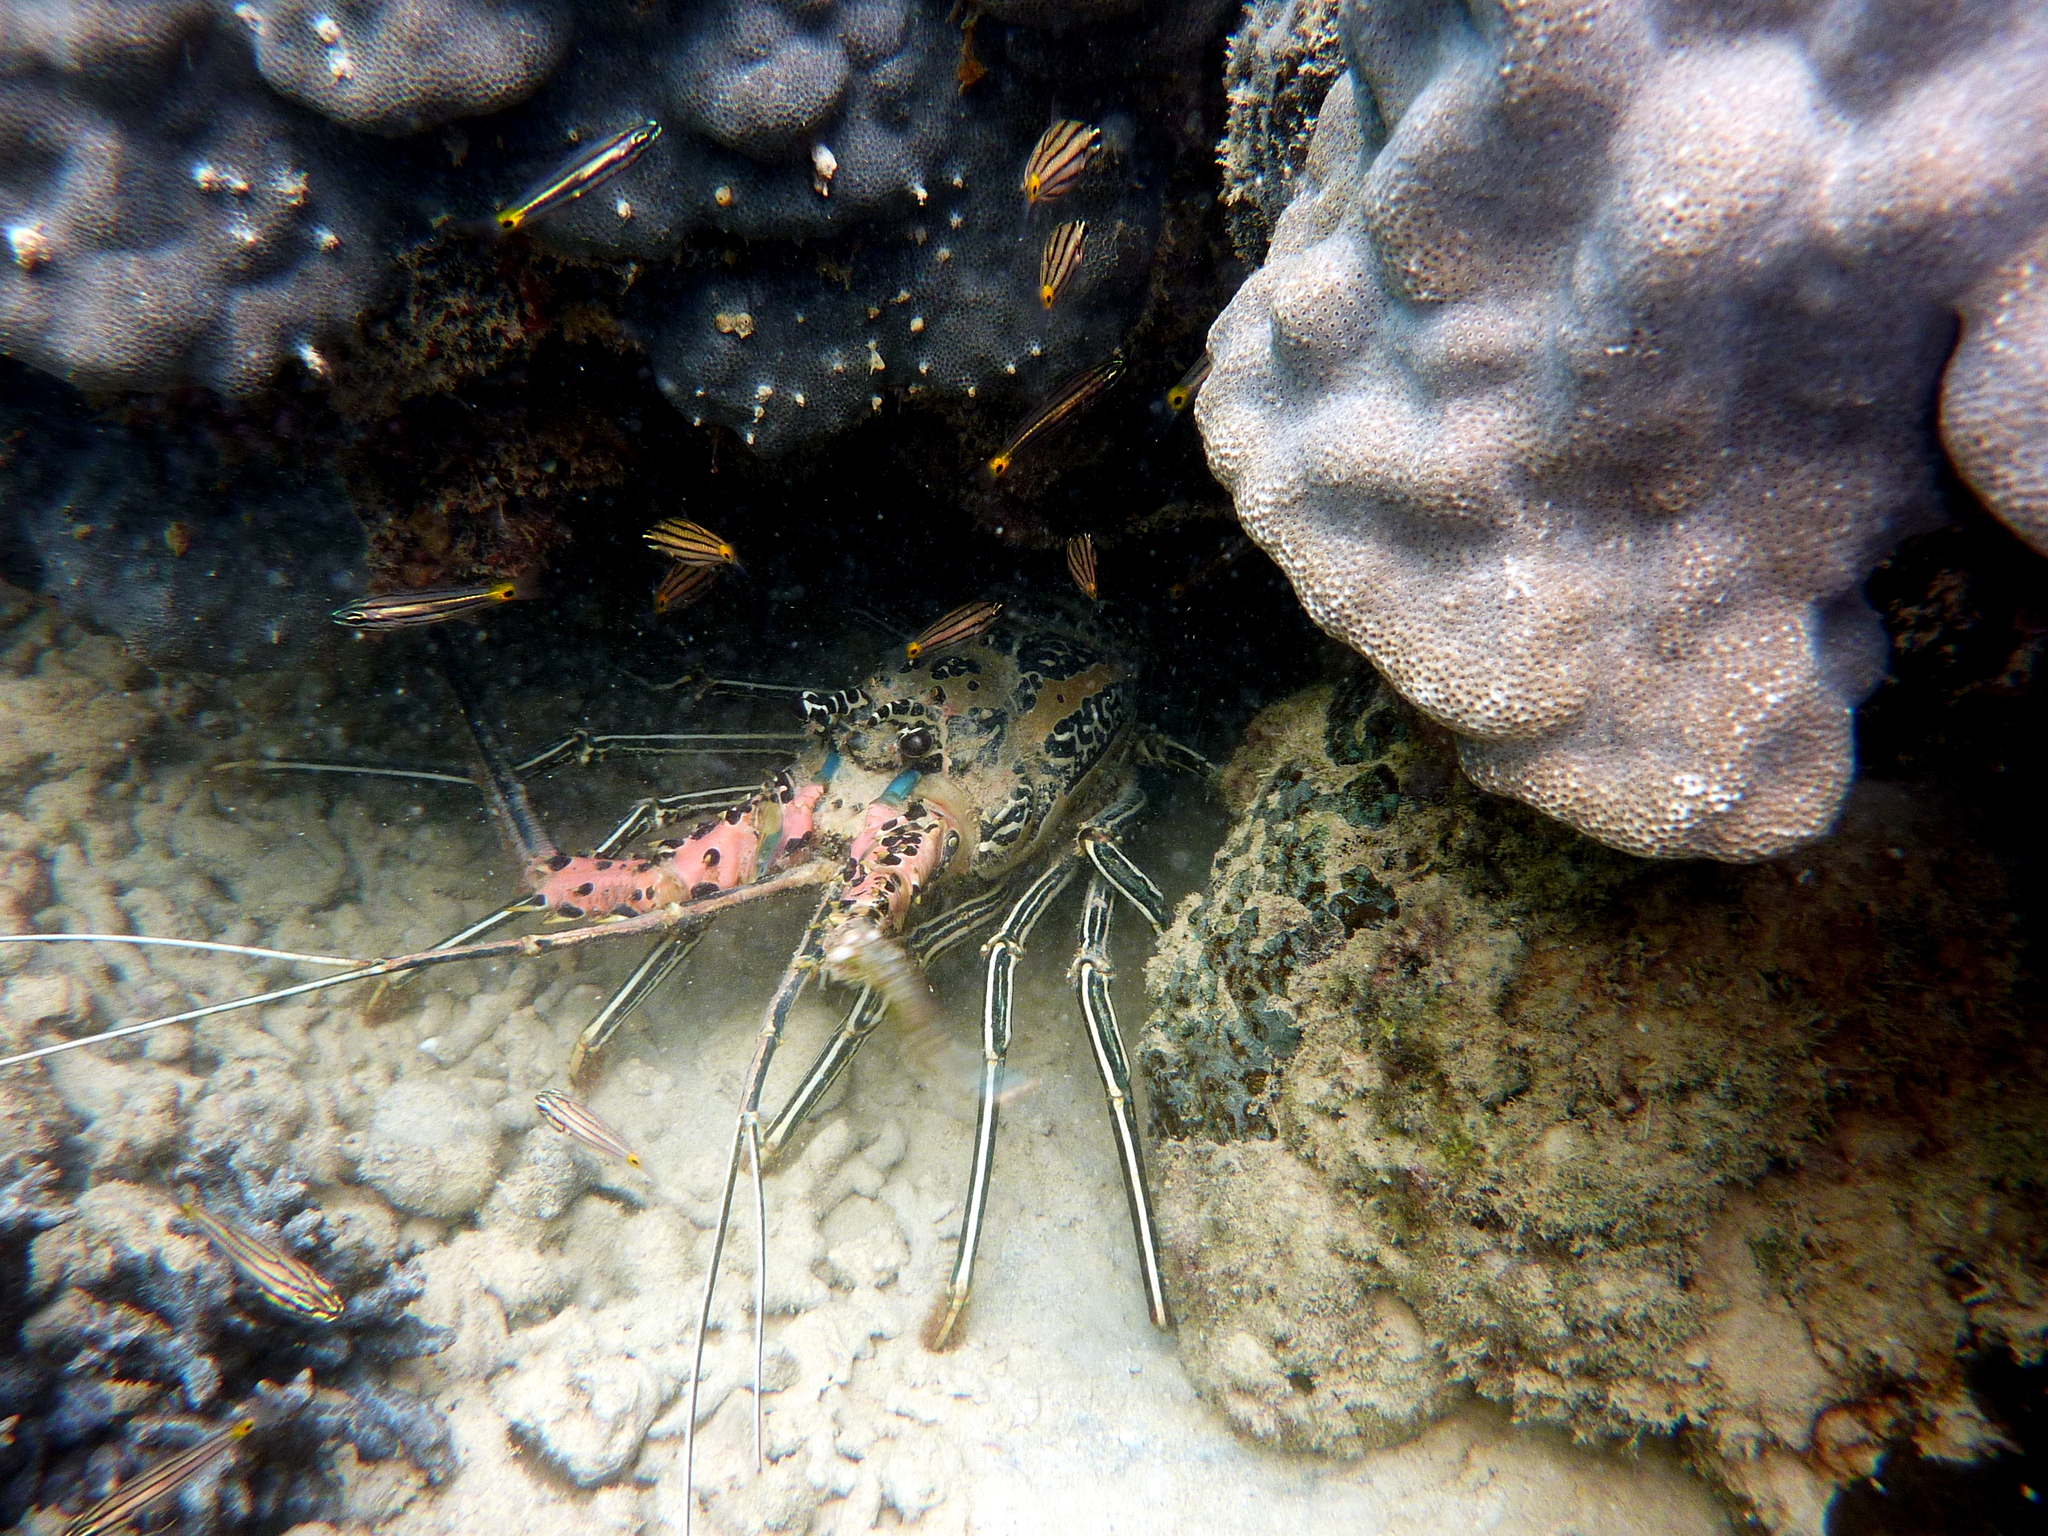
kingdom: Animalia
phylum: Arthropoda
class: Malacostraca
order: Decapoda
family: Palinuridae
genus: Panulirus
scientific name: Panulirus versicolor
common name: Painted spiny lobster
